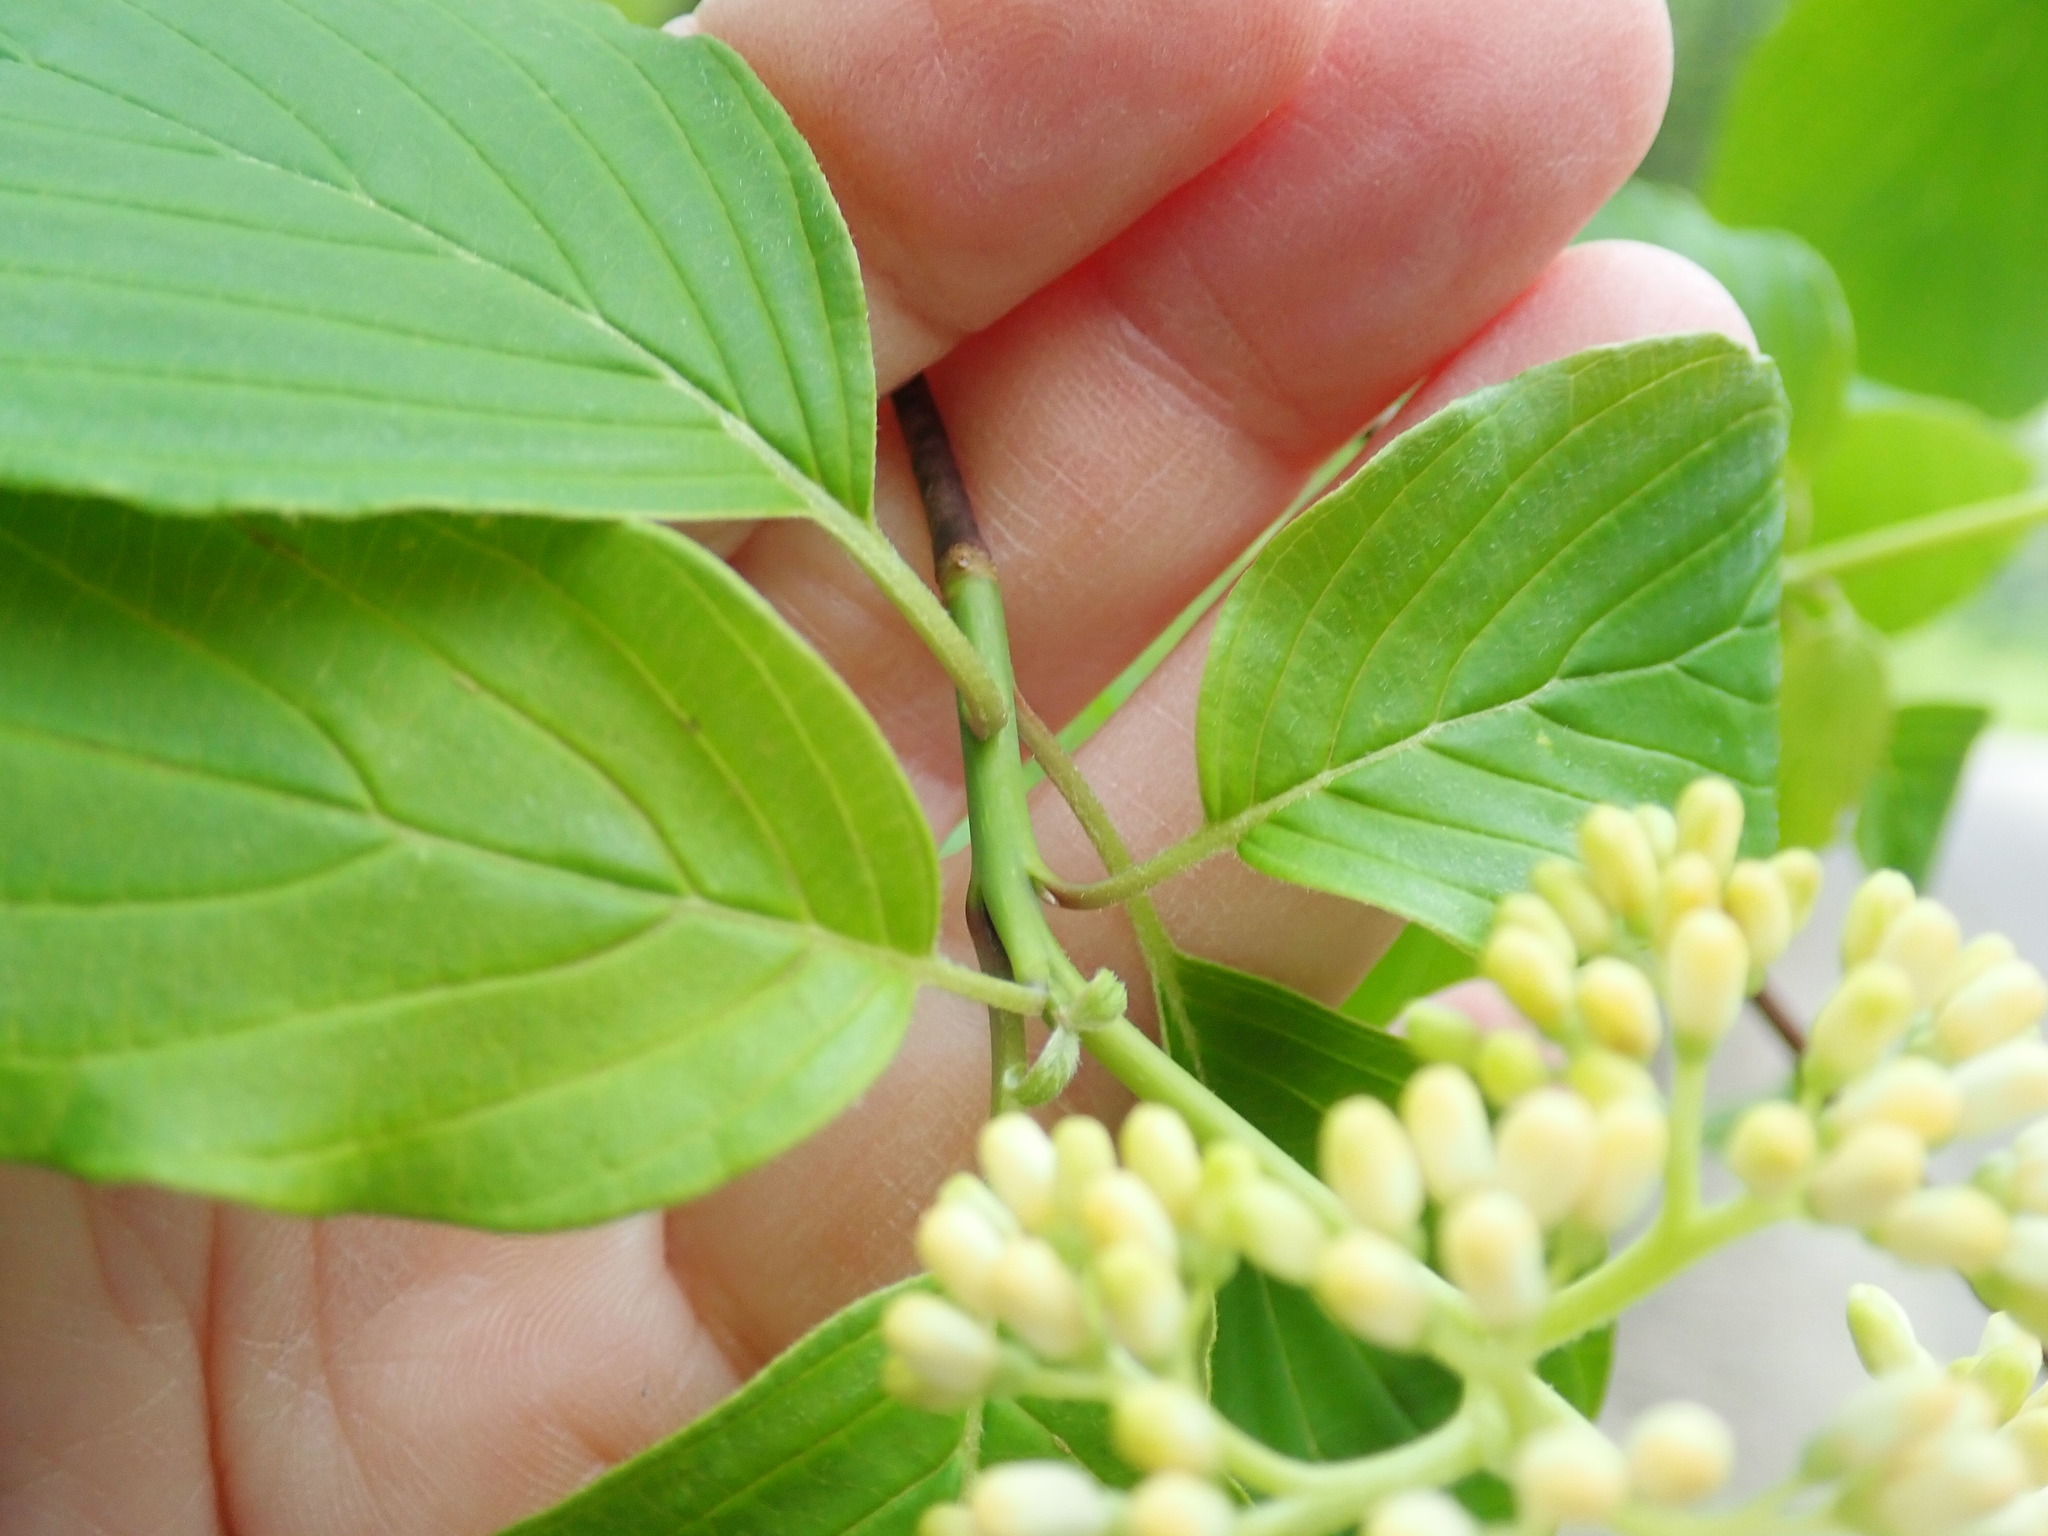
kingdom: Plantae
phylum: Tracheophyta
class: Magnoliopsida
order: Cornales
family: Cornaceae
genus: Cornus
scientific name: Cornus alternifolia
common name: Pagoda dogwood
